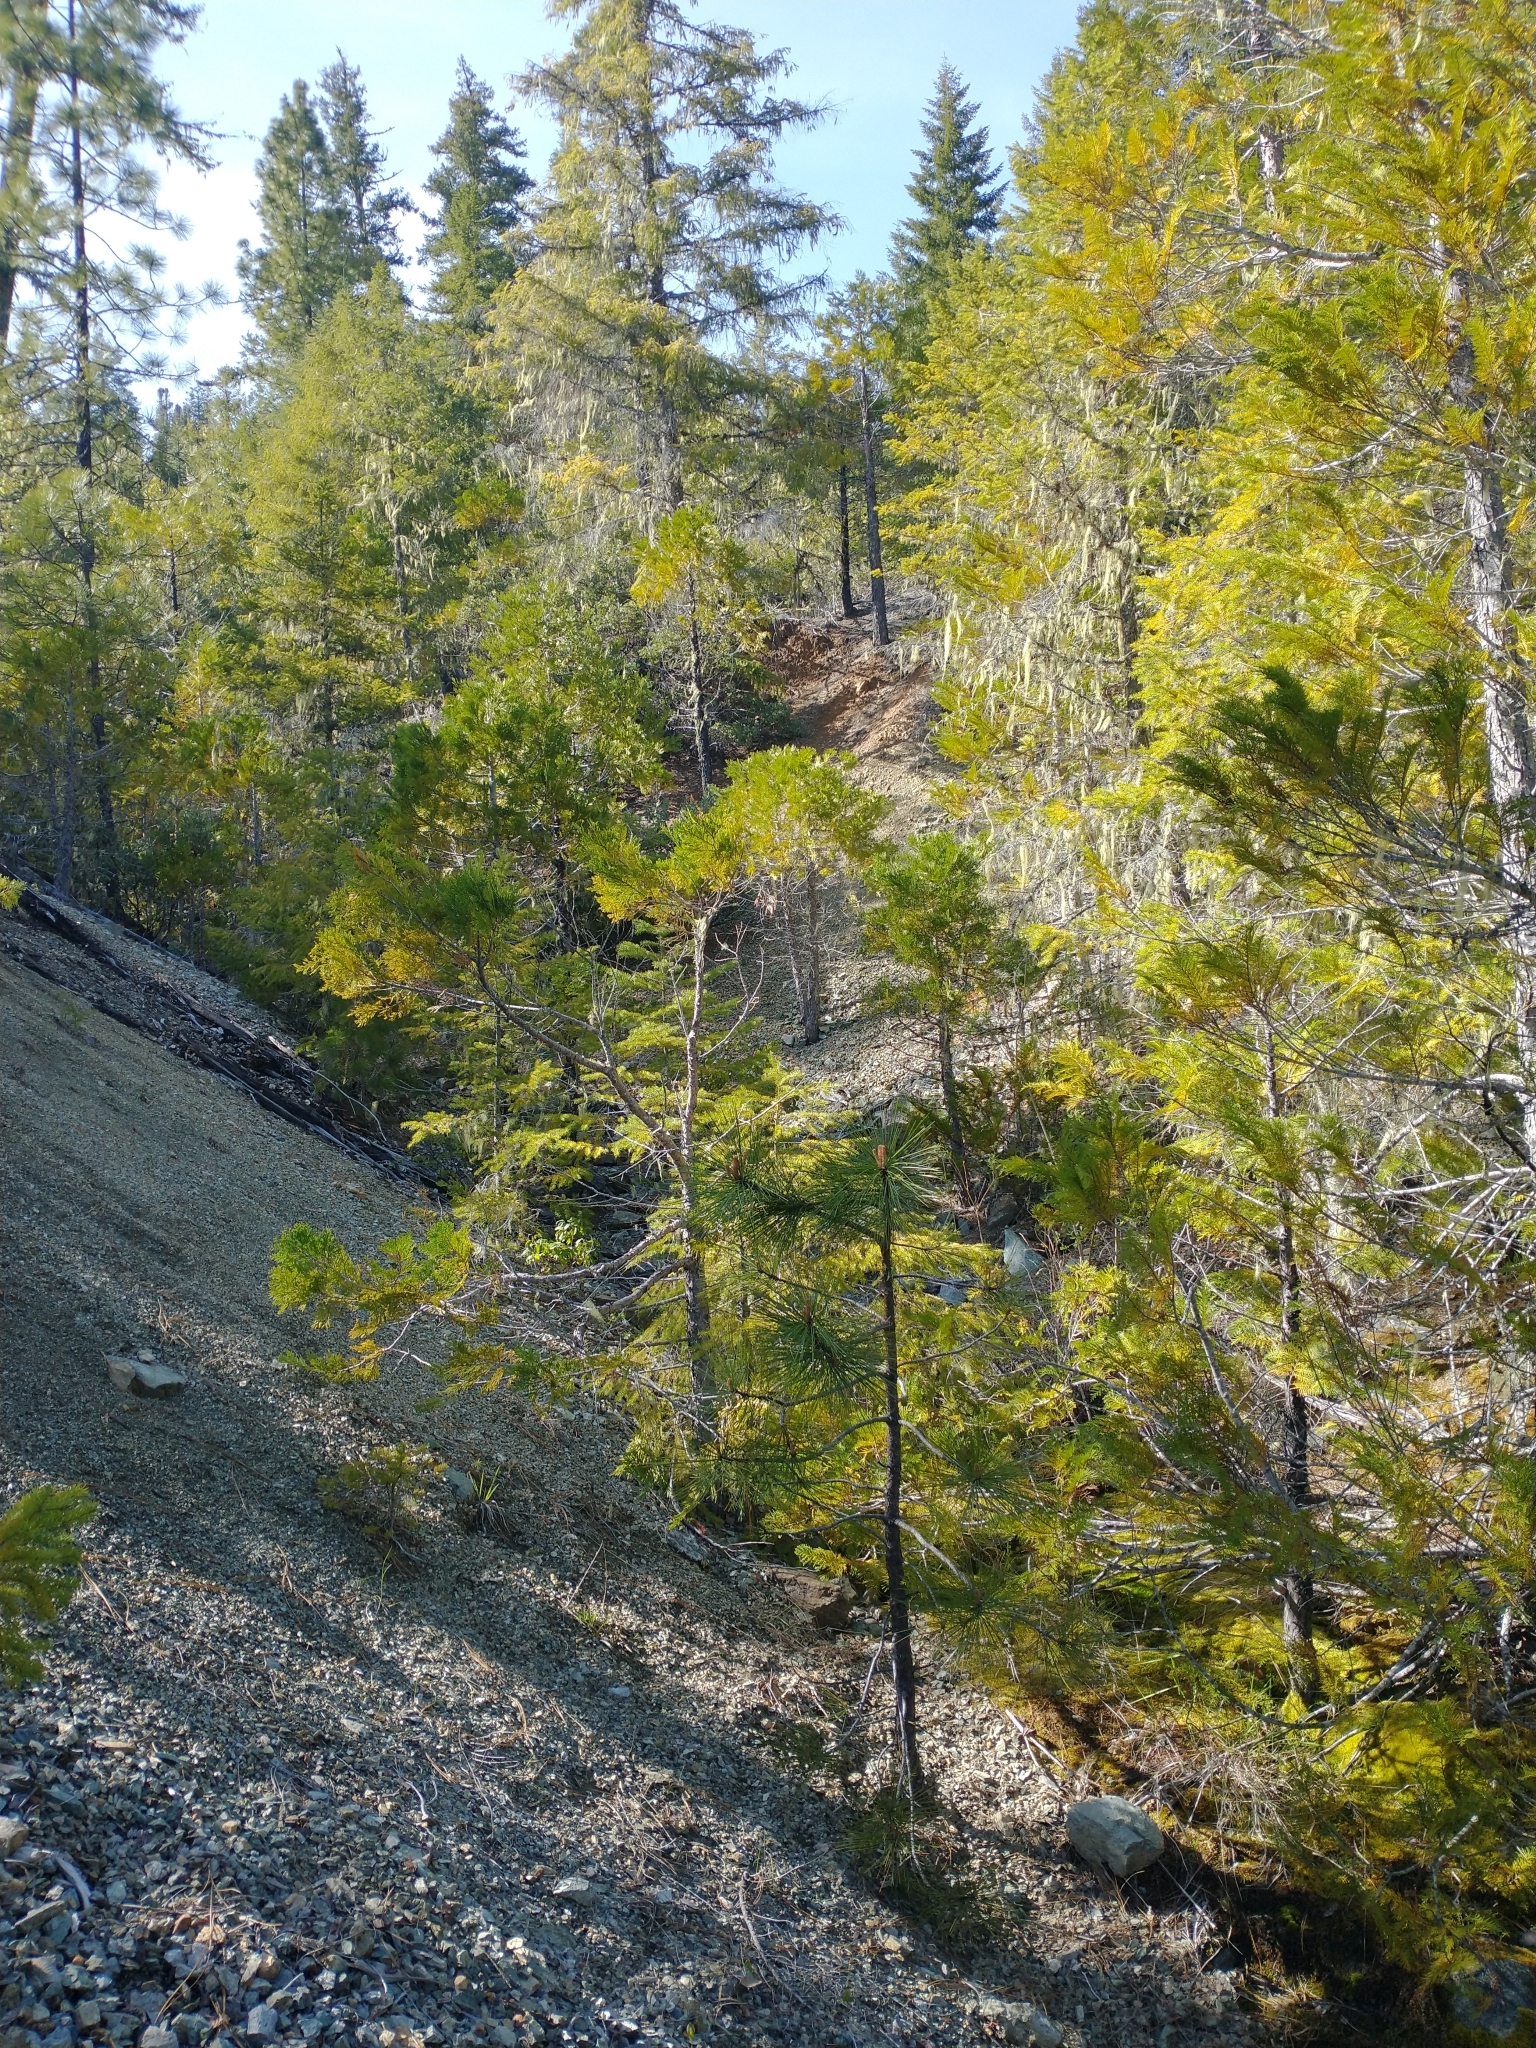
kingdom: Plantae
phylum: Tracheophyta
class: Pinopsida
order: Pinales
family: Cupressaceae
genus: Chamaecyparis
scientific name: Chamaecyparis lawsoniana
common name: Lawson's cypress
